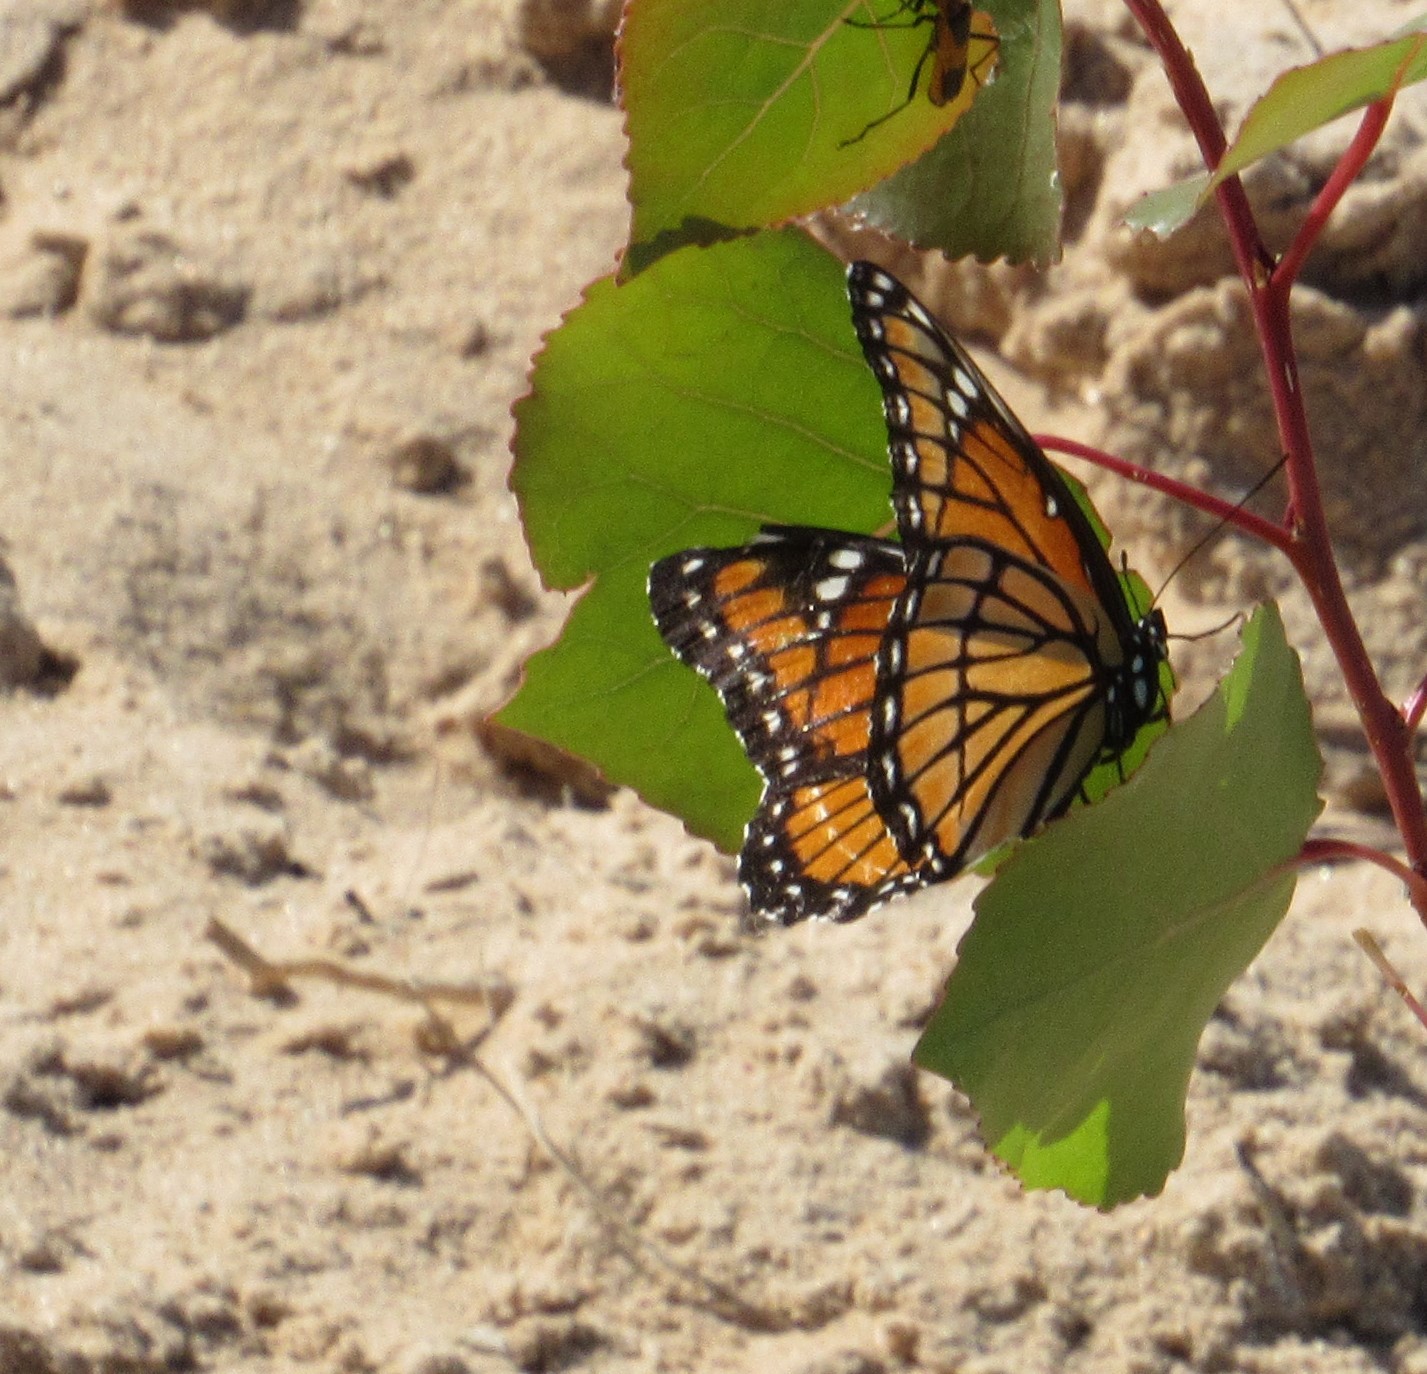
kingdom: Animalia
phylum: Arthropoda
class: Insecta
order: Lepidoptera
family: Nymphalidae
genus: Limenitis
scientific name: Limenitis archippus
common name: Viceroy
